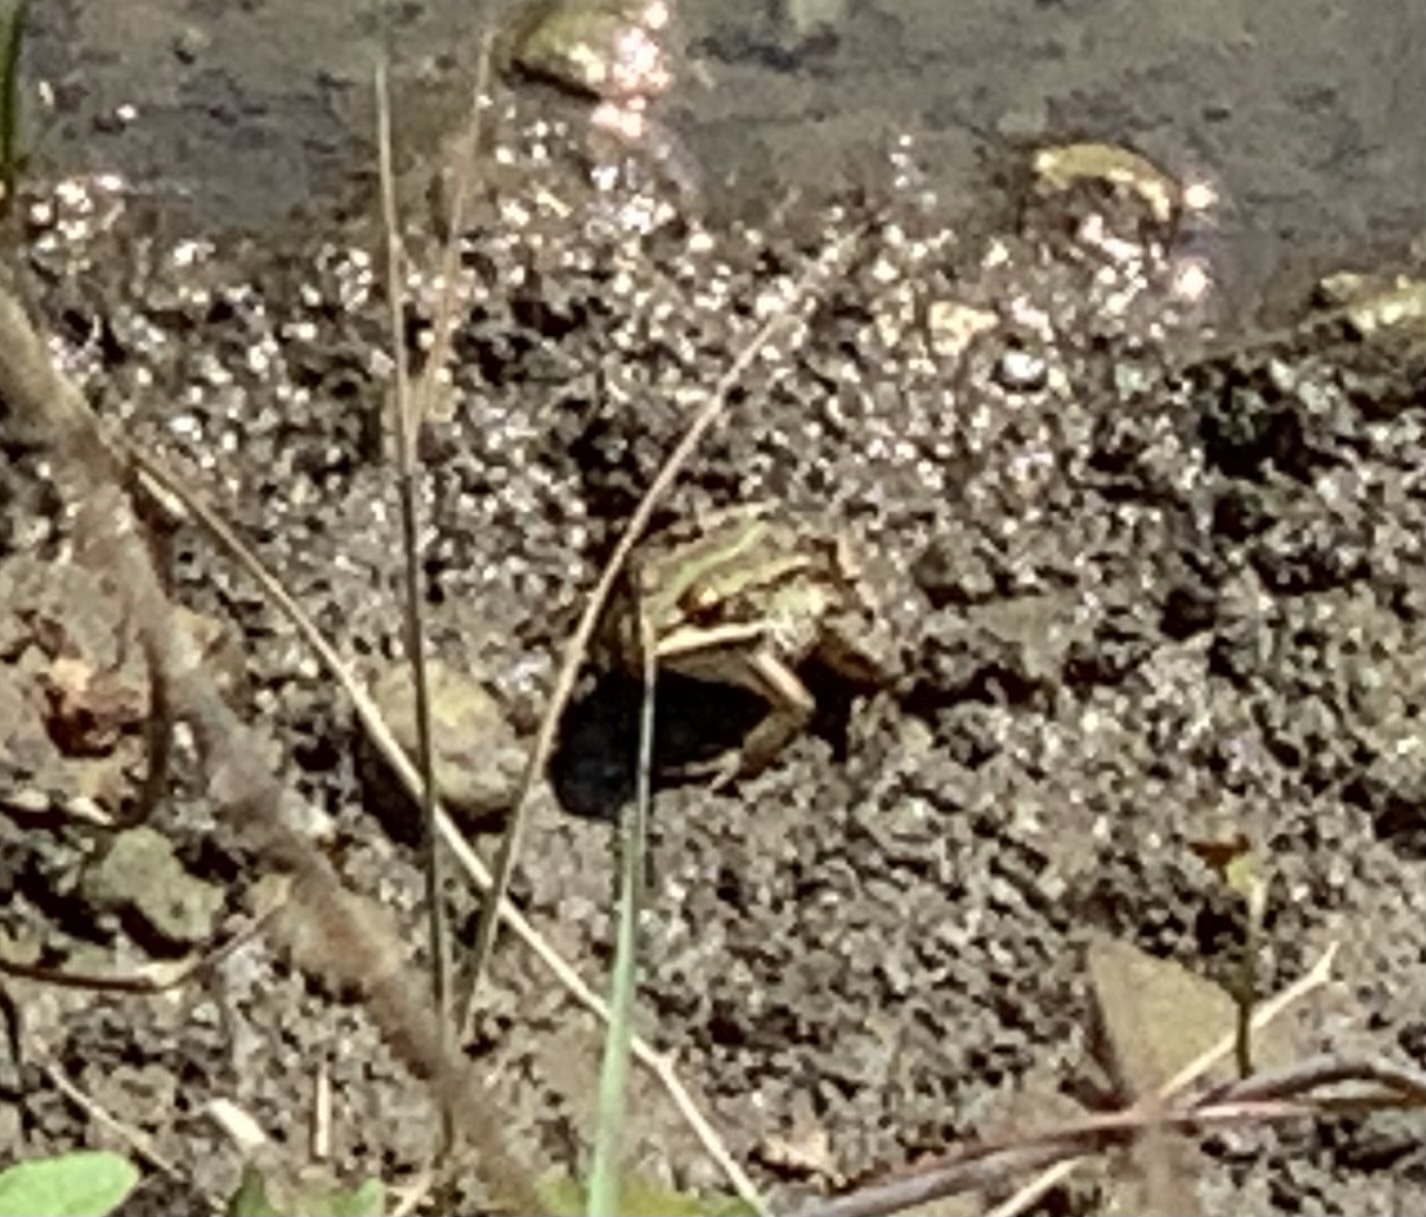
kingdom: Animalia
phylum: Chordata
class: Amphibia
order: Anura
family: Ranidae
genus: Pelophylax
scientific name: Pelophylax
